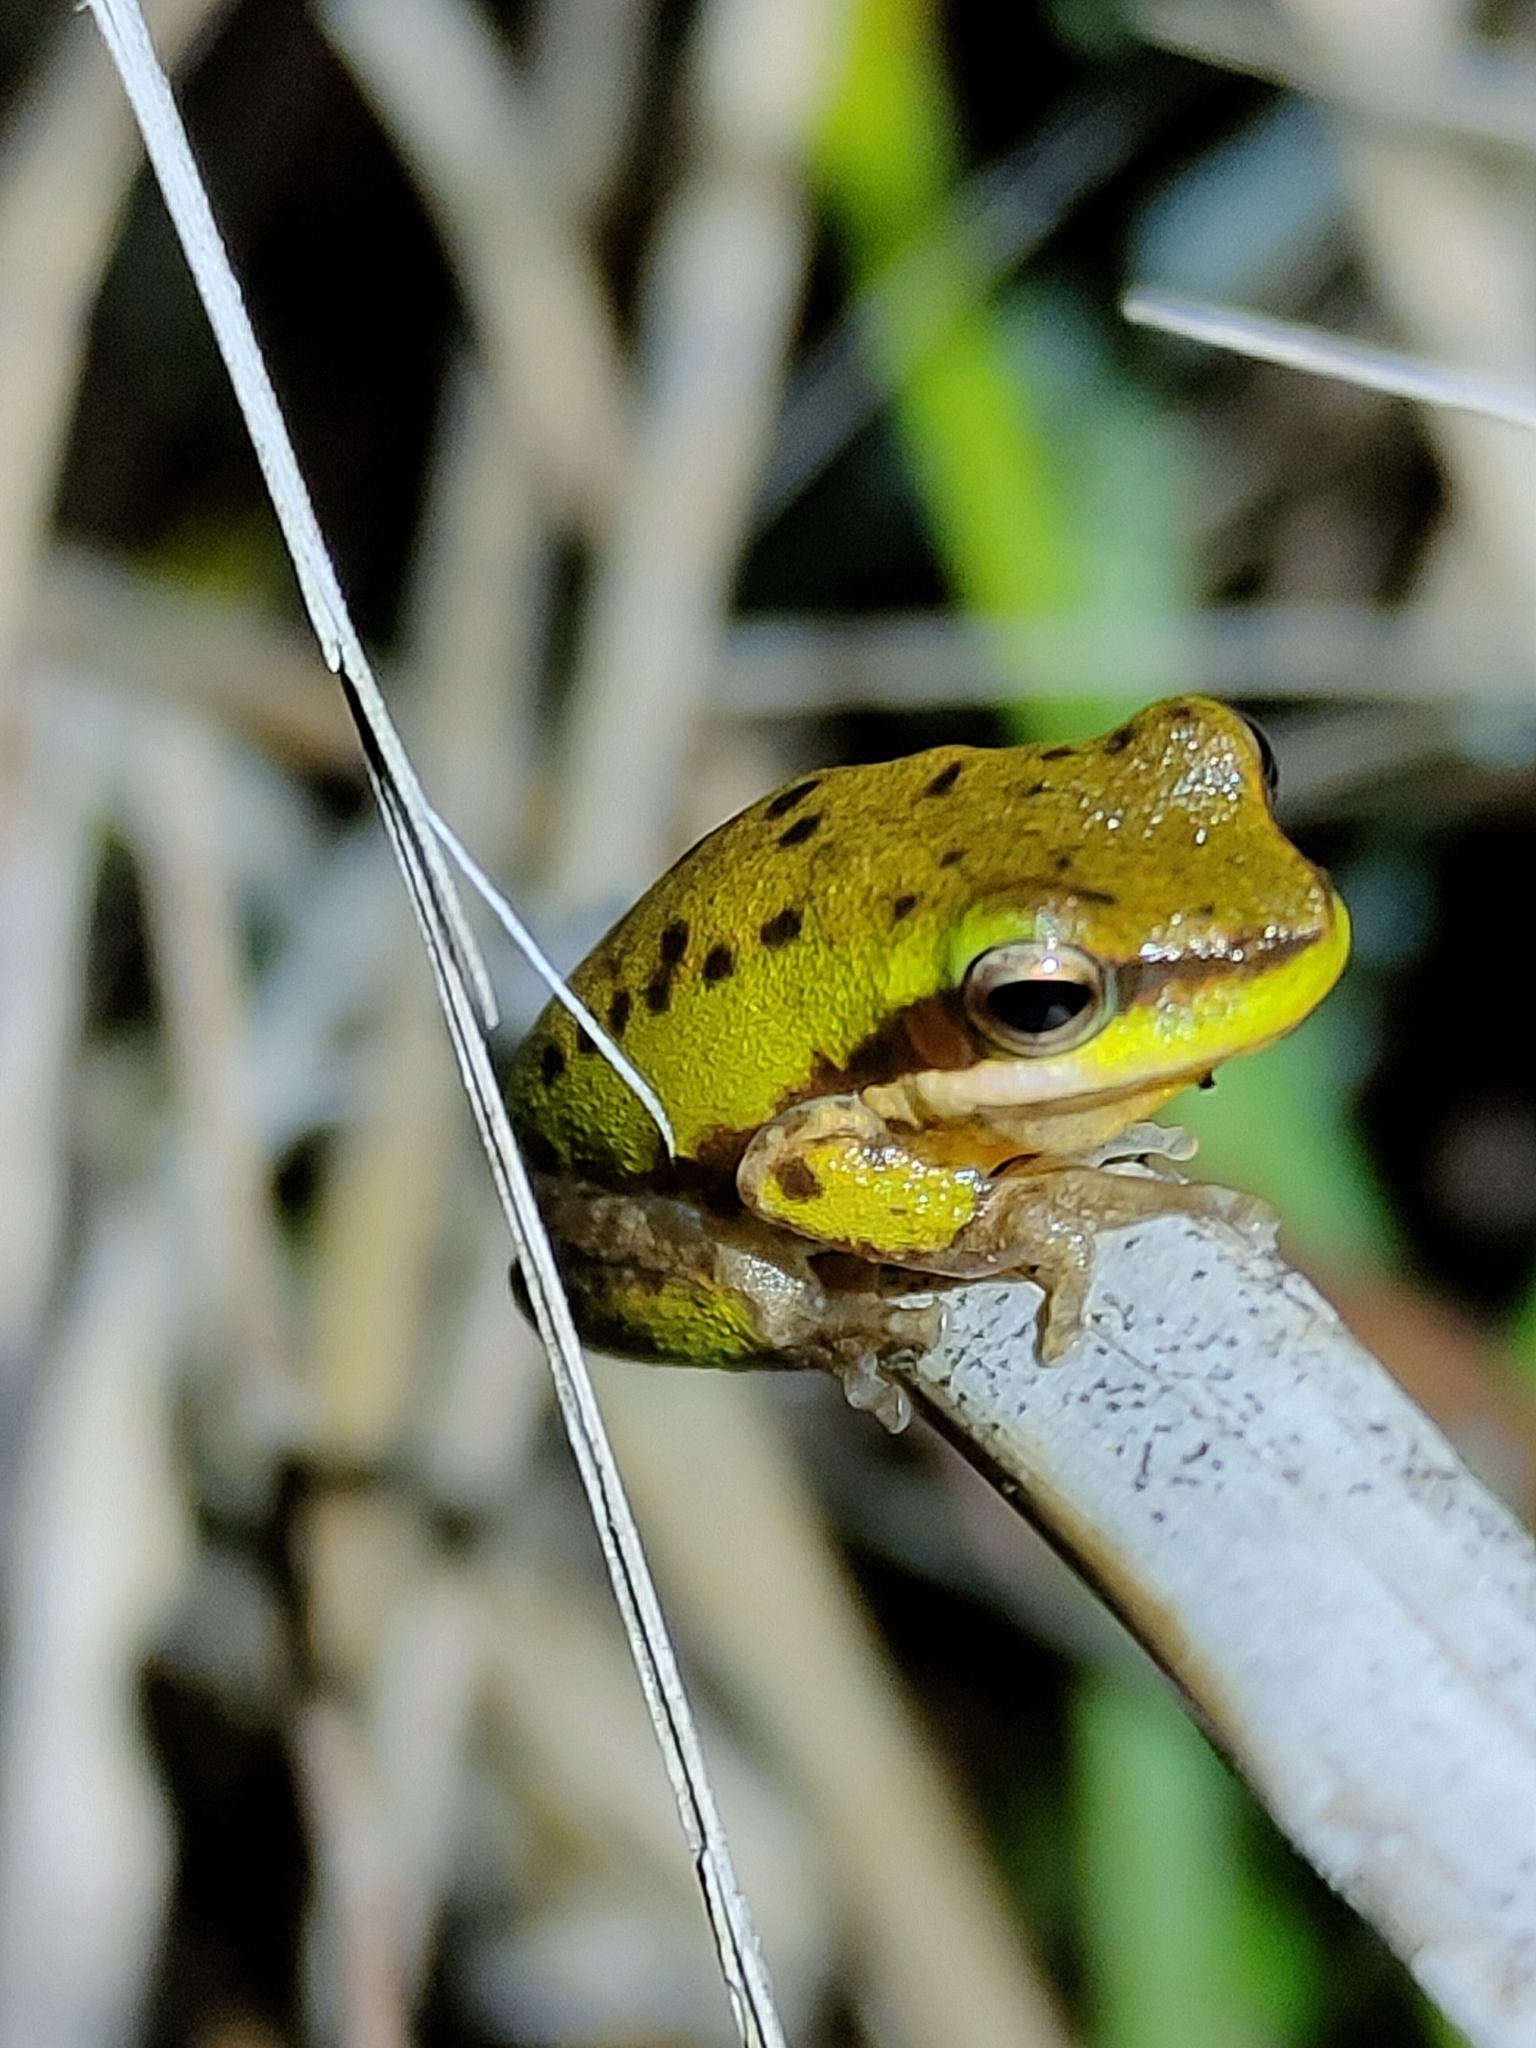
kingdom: Animalia
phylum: Chordata
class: Amphibia
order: Anura
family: Pelodryadidae
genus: Litoria
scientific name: Litoria fallax
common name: Eastern dwarf treefrog
